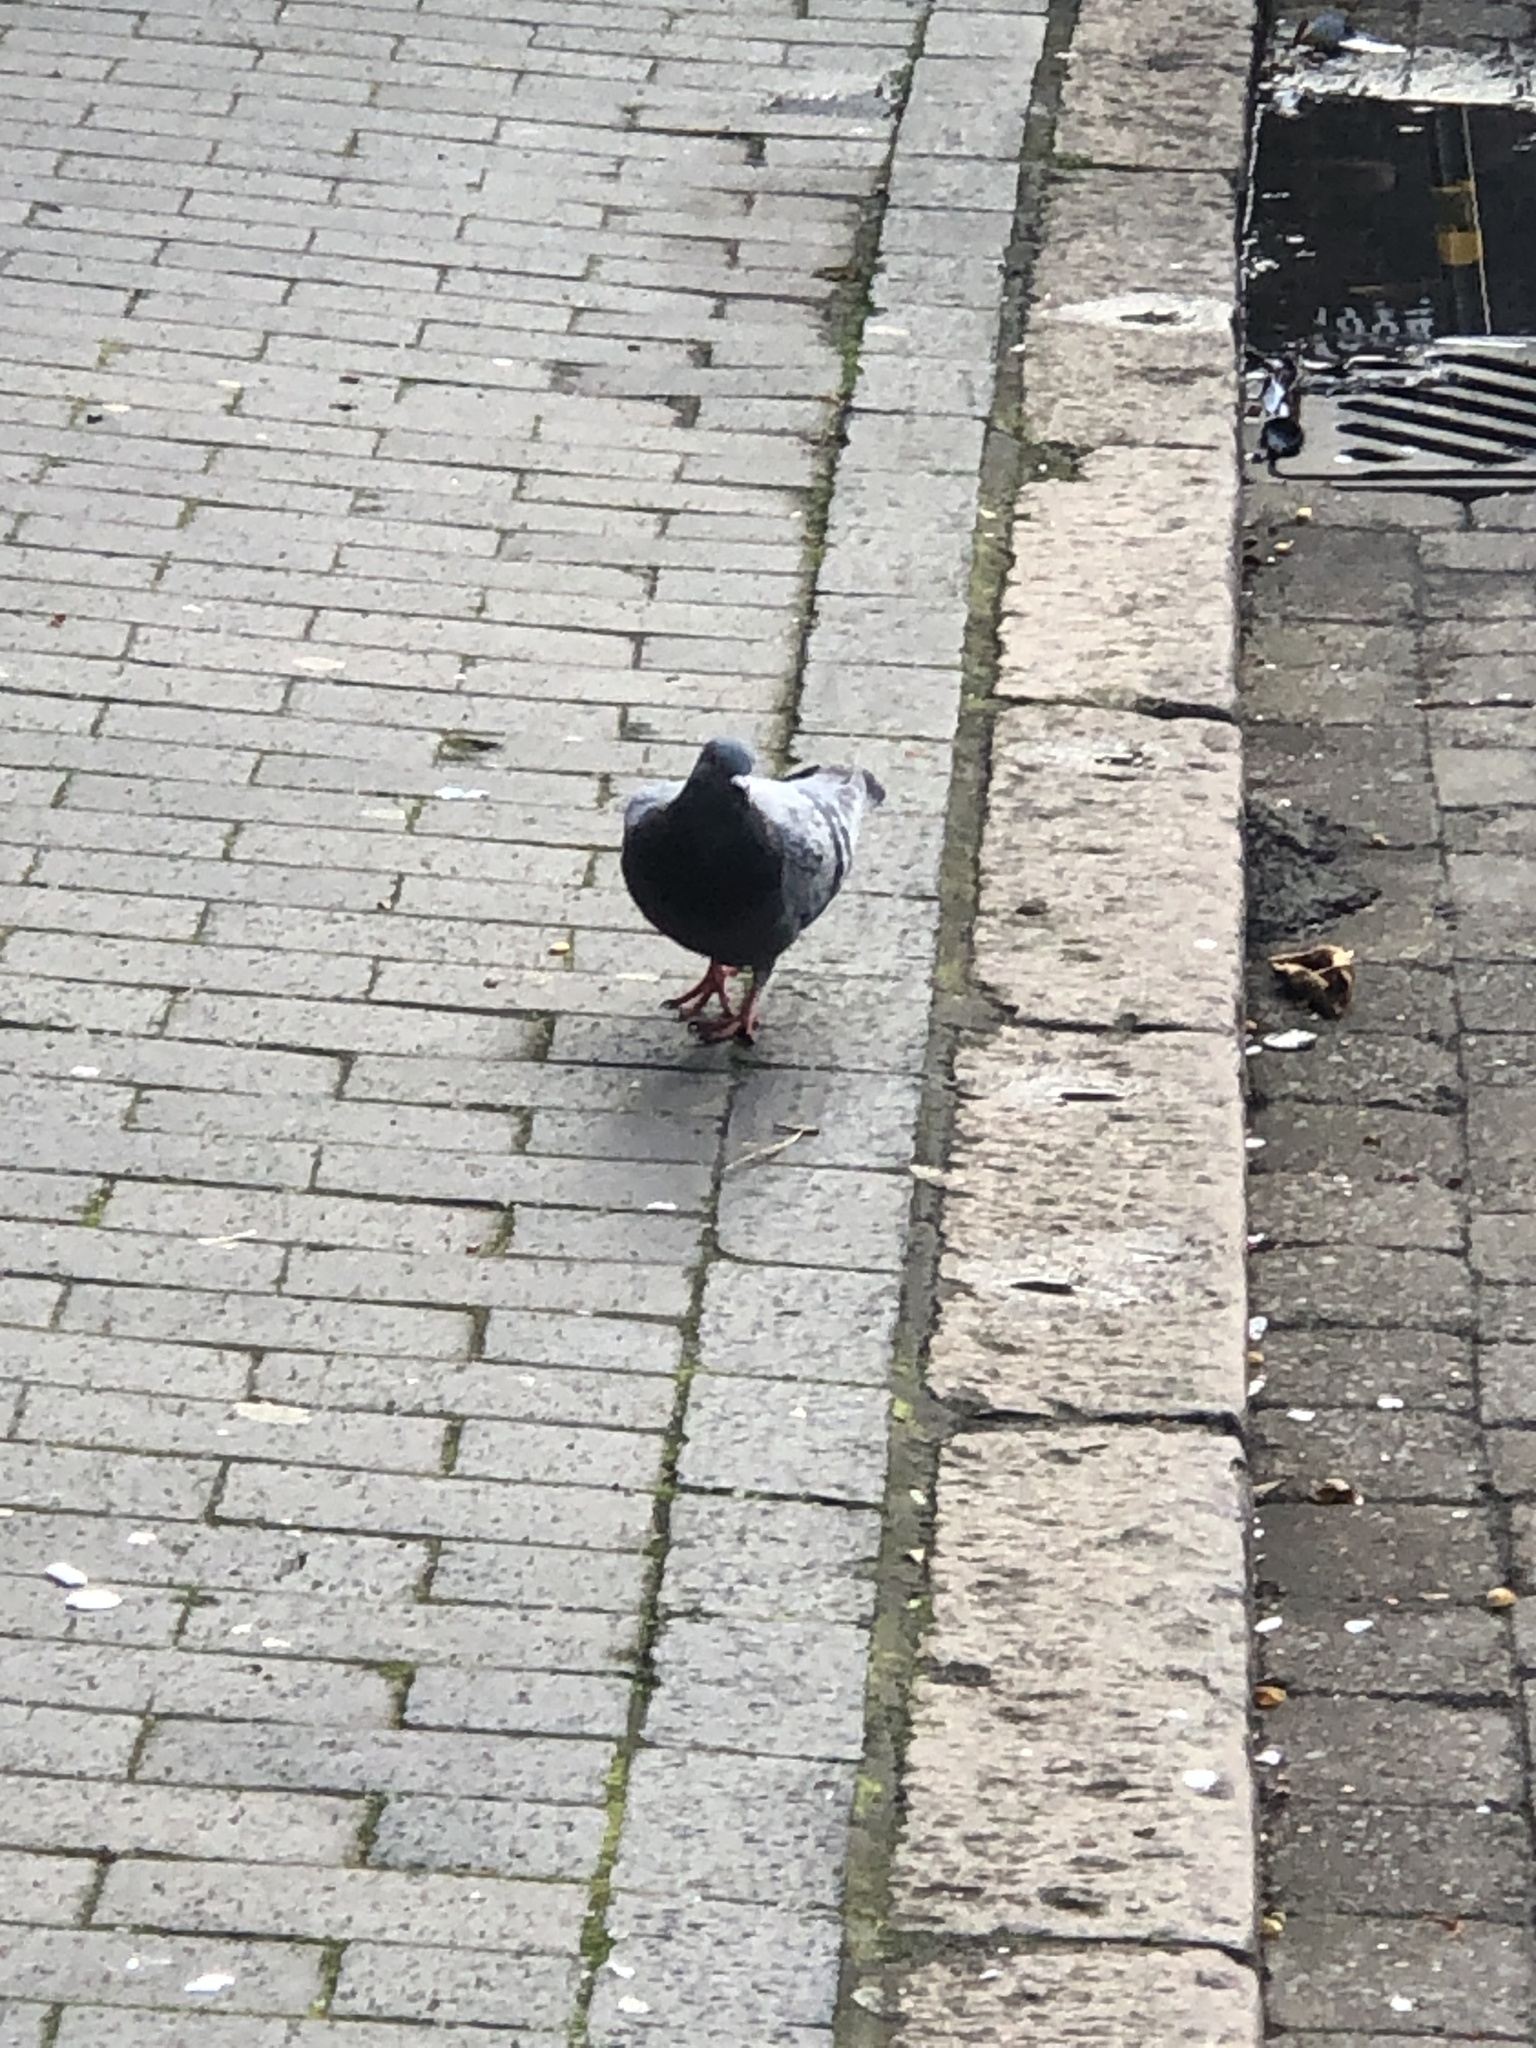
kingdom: Animalia
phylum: Chordata
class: Aves
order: Columbiformes
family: Columbidae
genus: Columba
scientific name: Columba livia
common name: Rock pigeon
